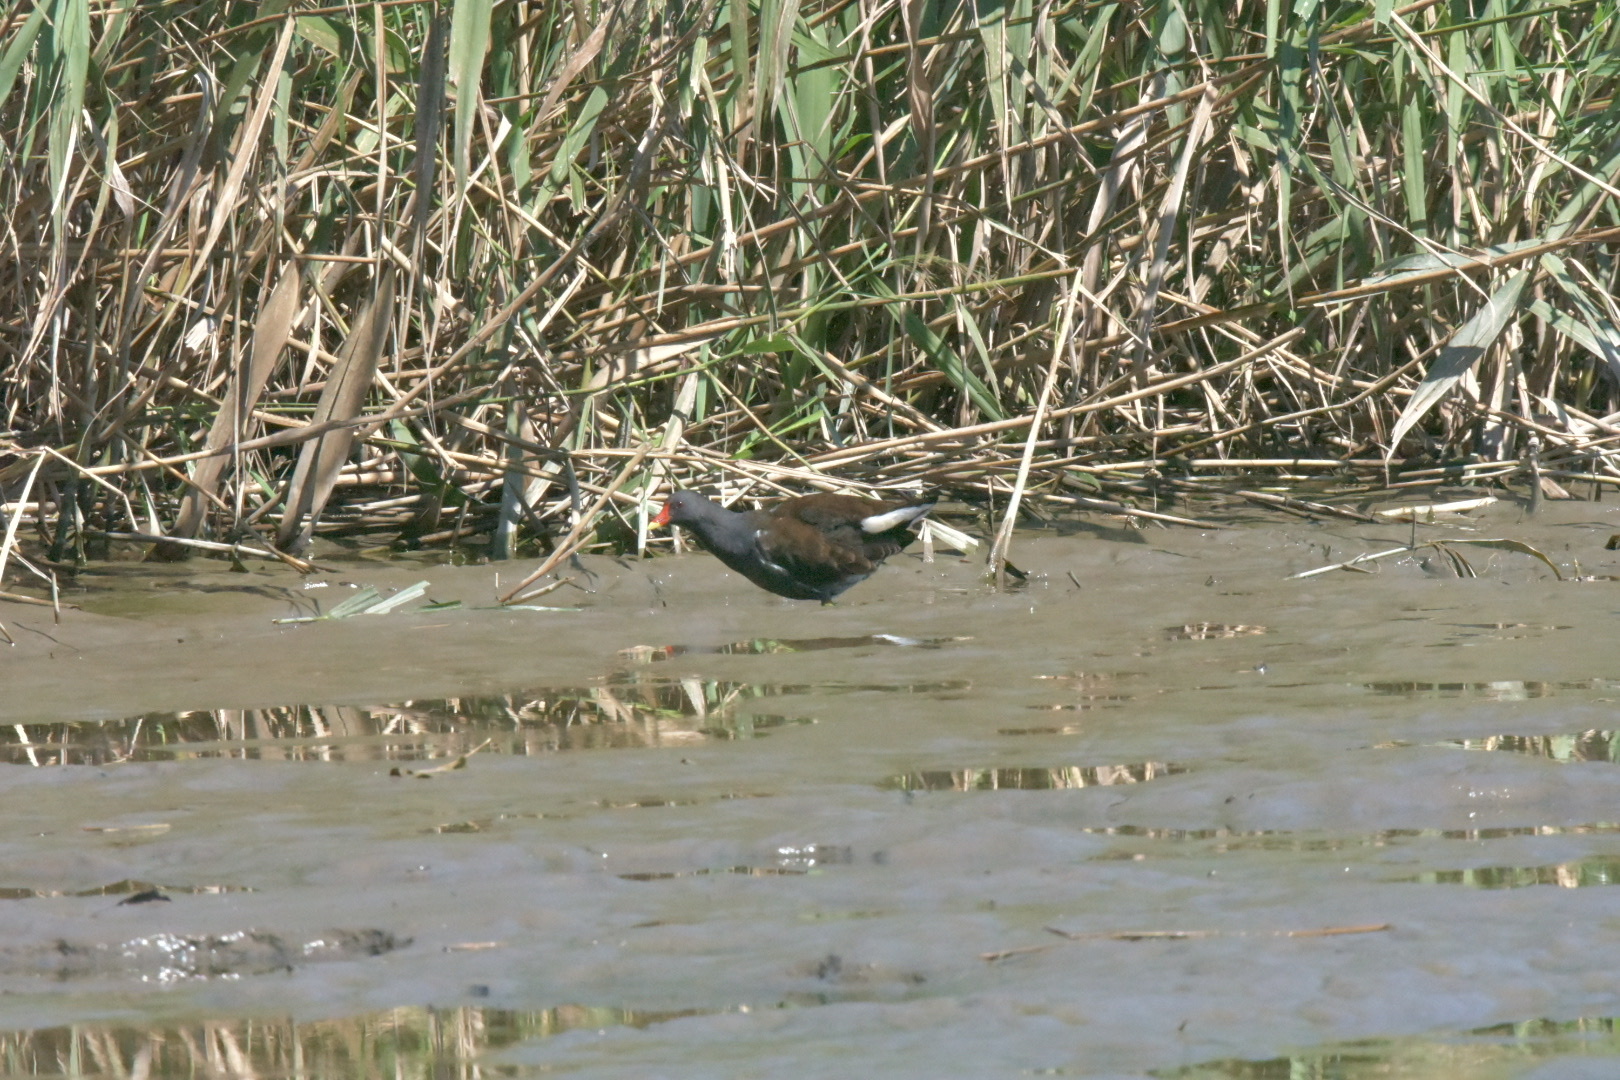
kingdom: Animalia
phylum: Chordata
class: Aves
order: Gruiformes
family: Rallidae
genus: Gallinula
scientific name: Gallinula chloropus
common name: Common moorhen
